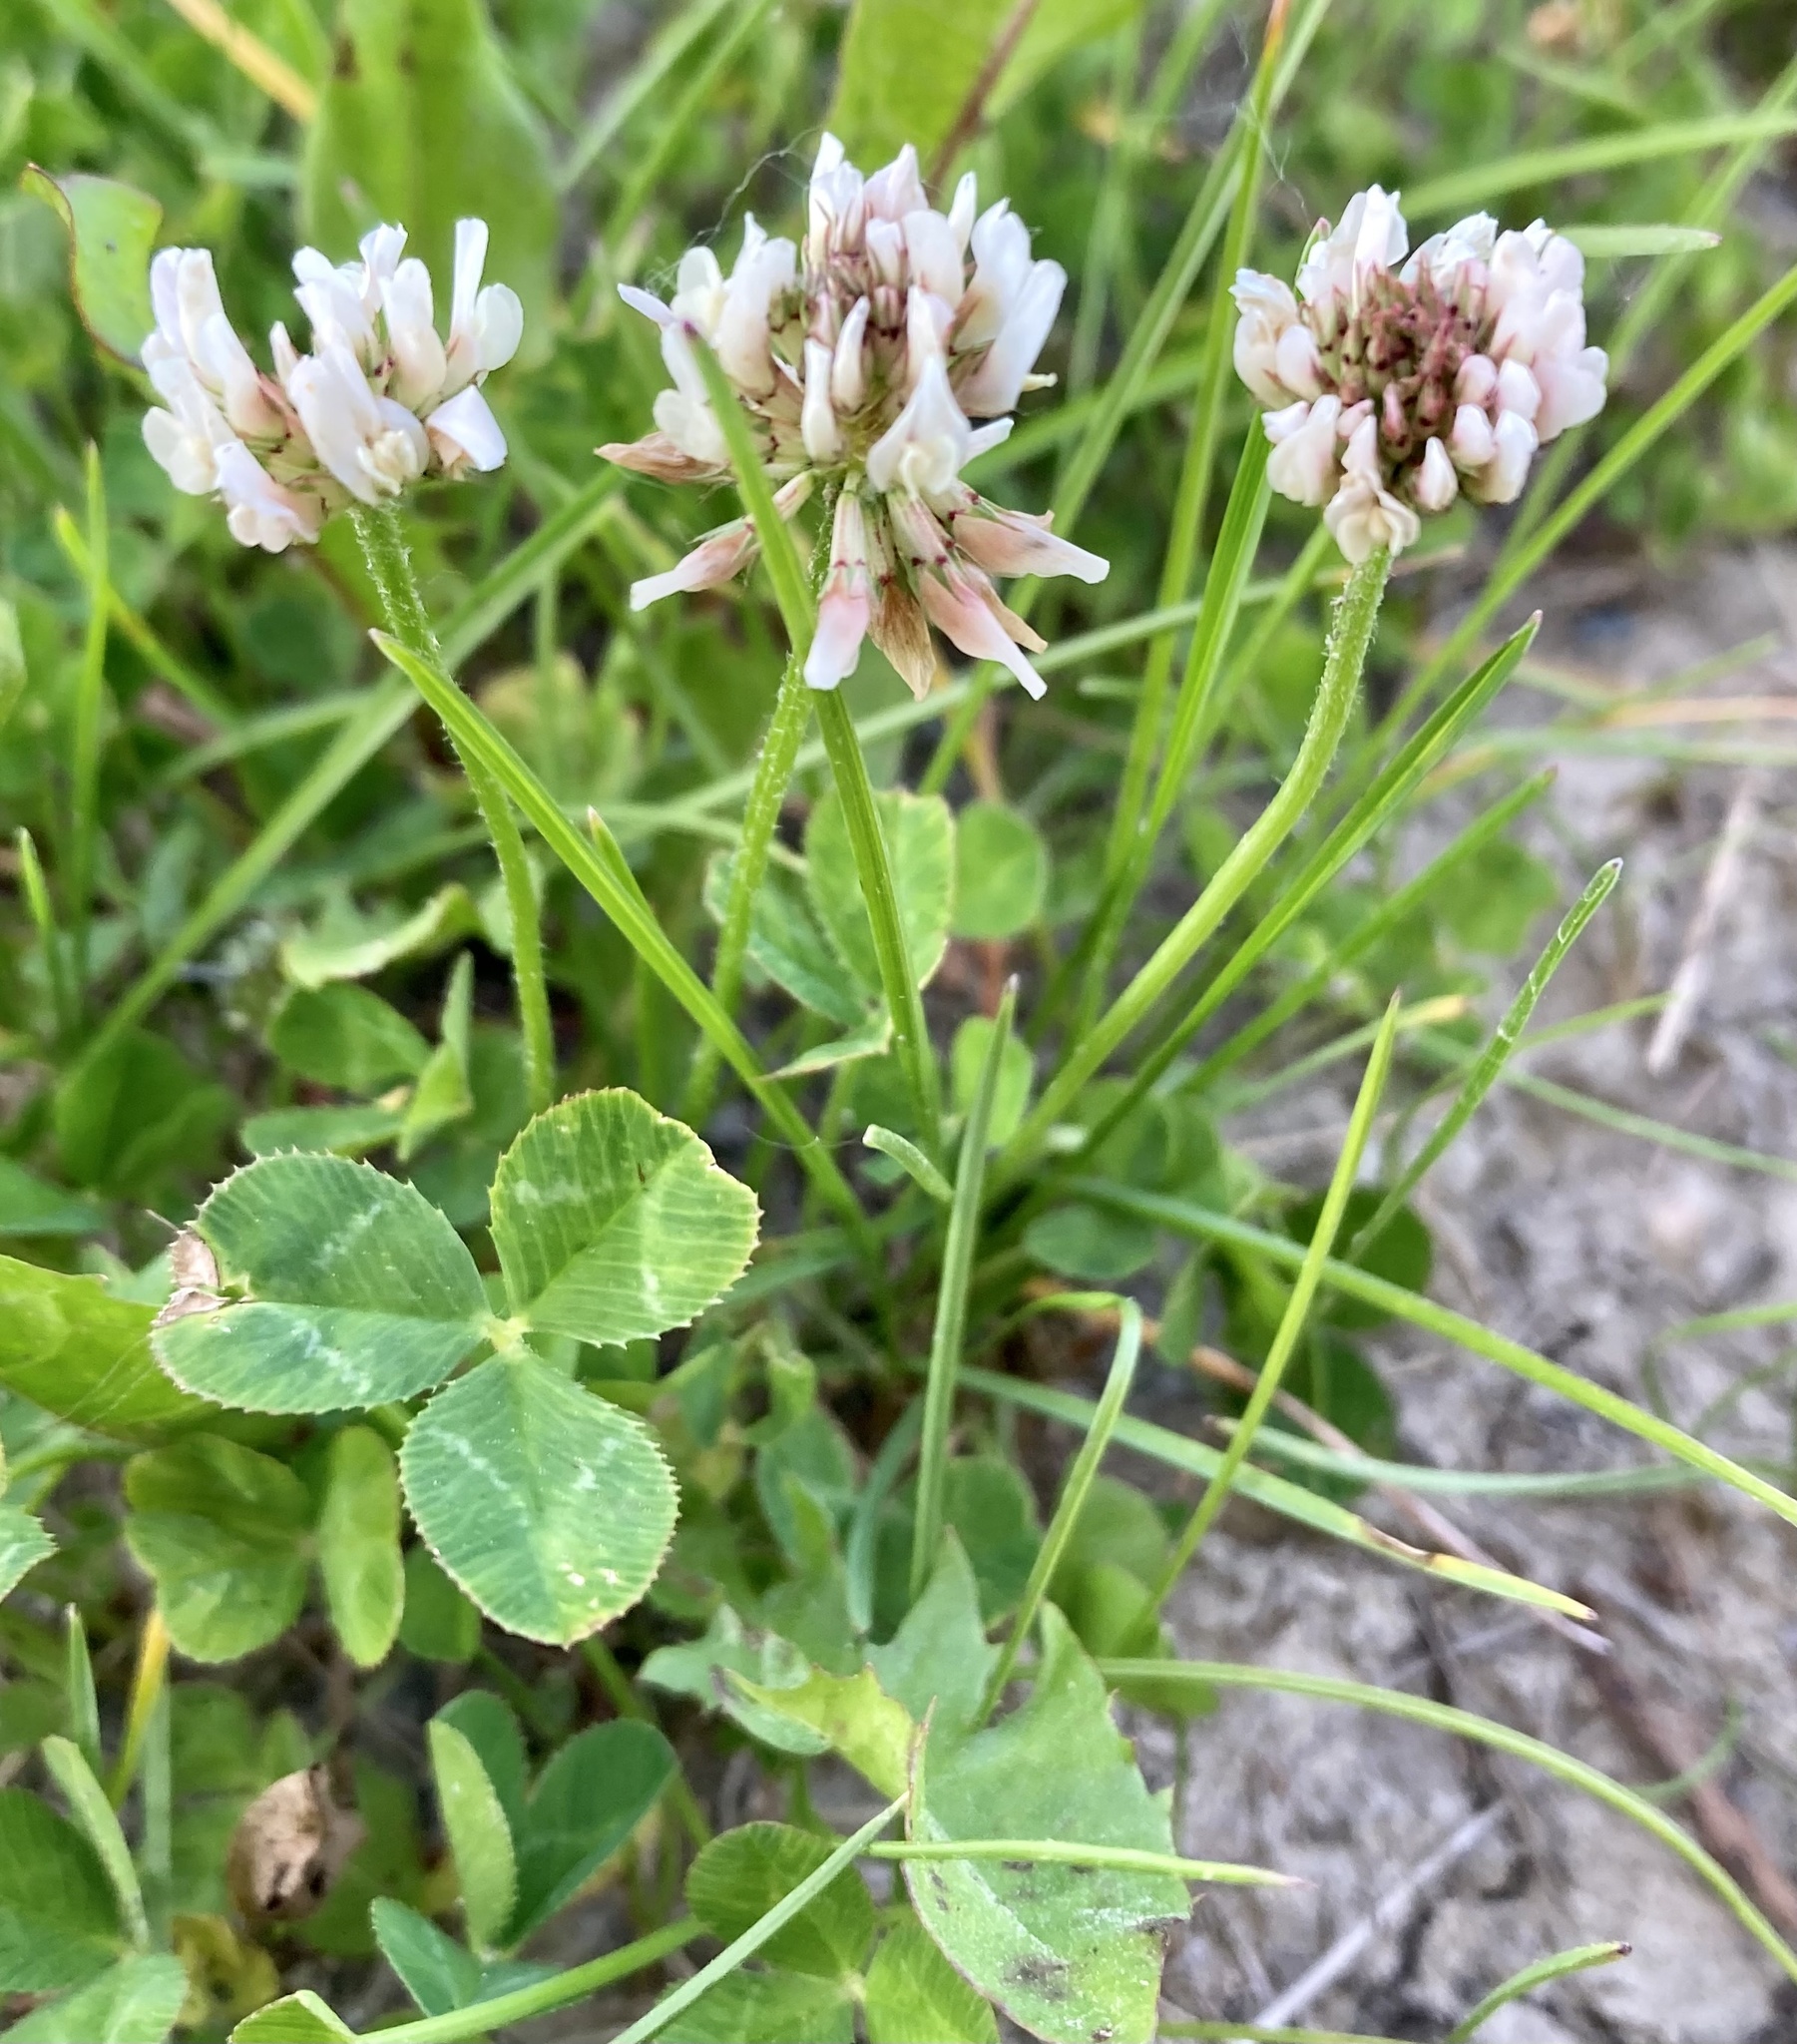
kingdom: Plantae
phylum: Tracheophyta
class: Magnoliopsida
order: Fabales
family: Fabaceae
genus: Trifolium
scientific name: Trifolium repens
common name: White clover
